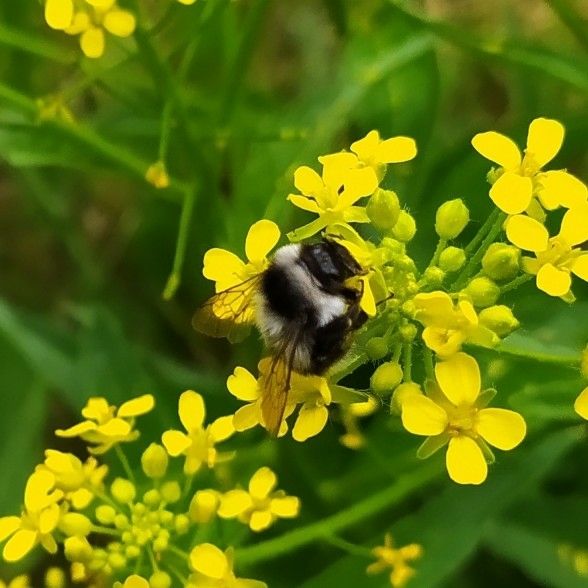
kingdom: Animalia
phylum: Arthropoda
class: Insecta
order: Hymenoptera
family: Apidae
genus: Bombus
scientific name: Bombus
